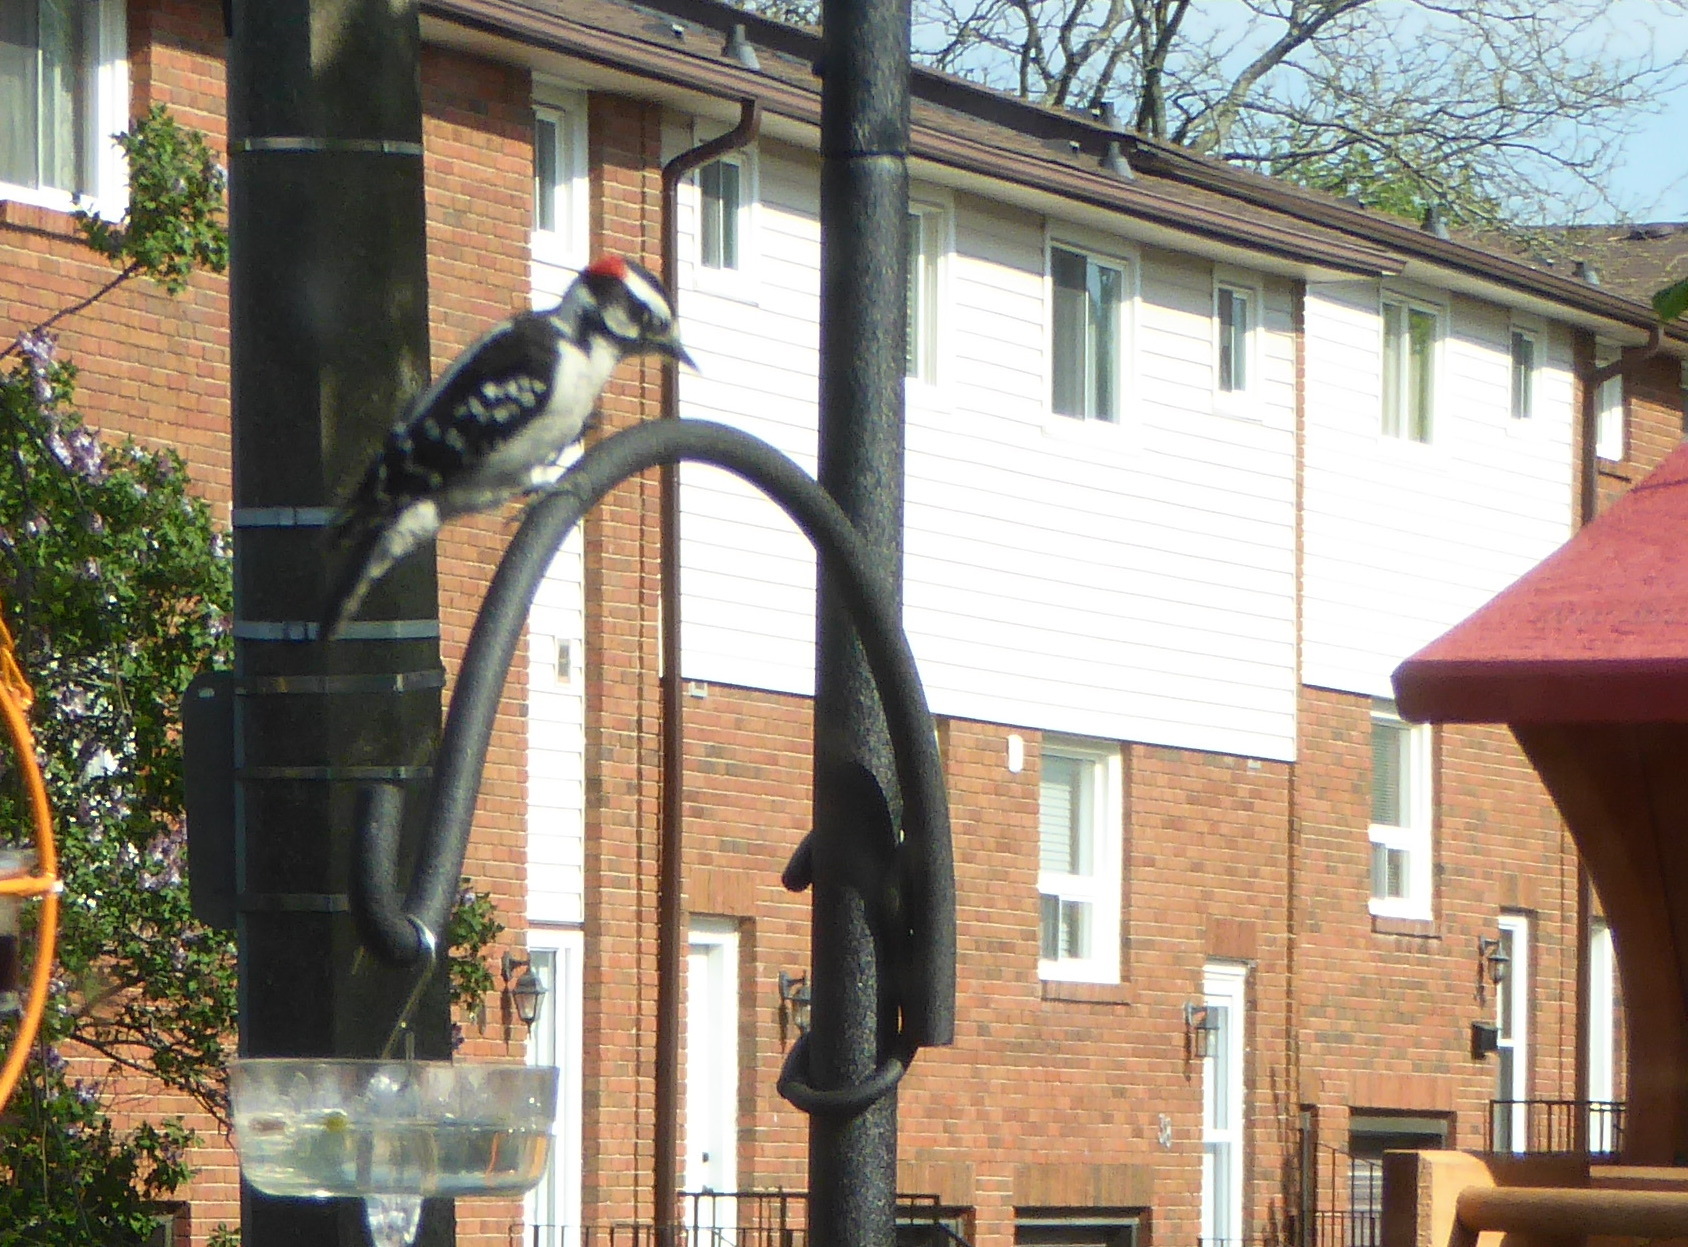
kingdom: Animalia
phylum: Chordata
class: Aves
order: Piciformes
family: Picidae
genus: Dryobates
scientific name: Dryobates pubescens
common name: Downy woodpecker
